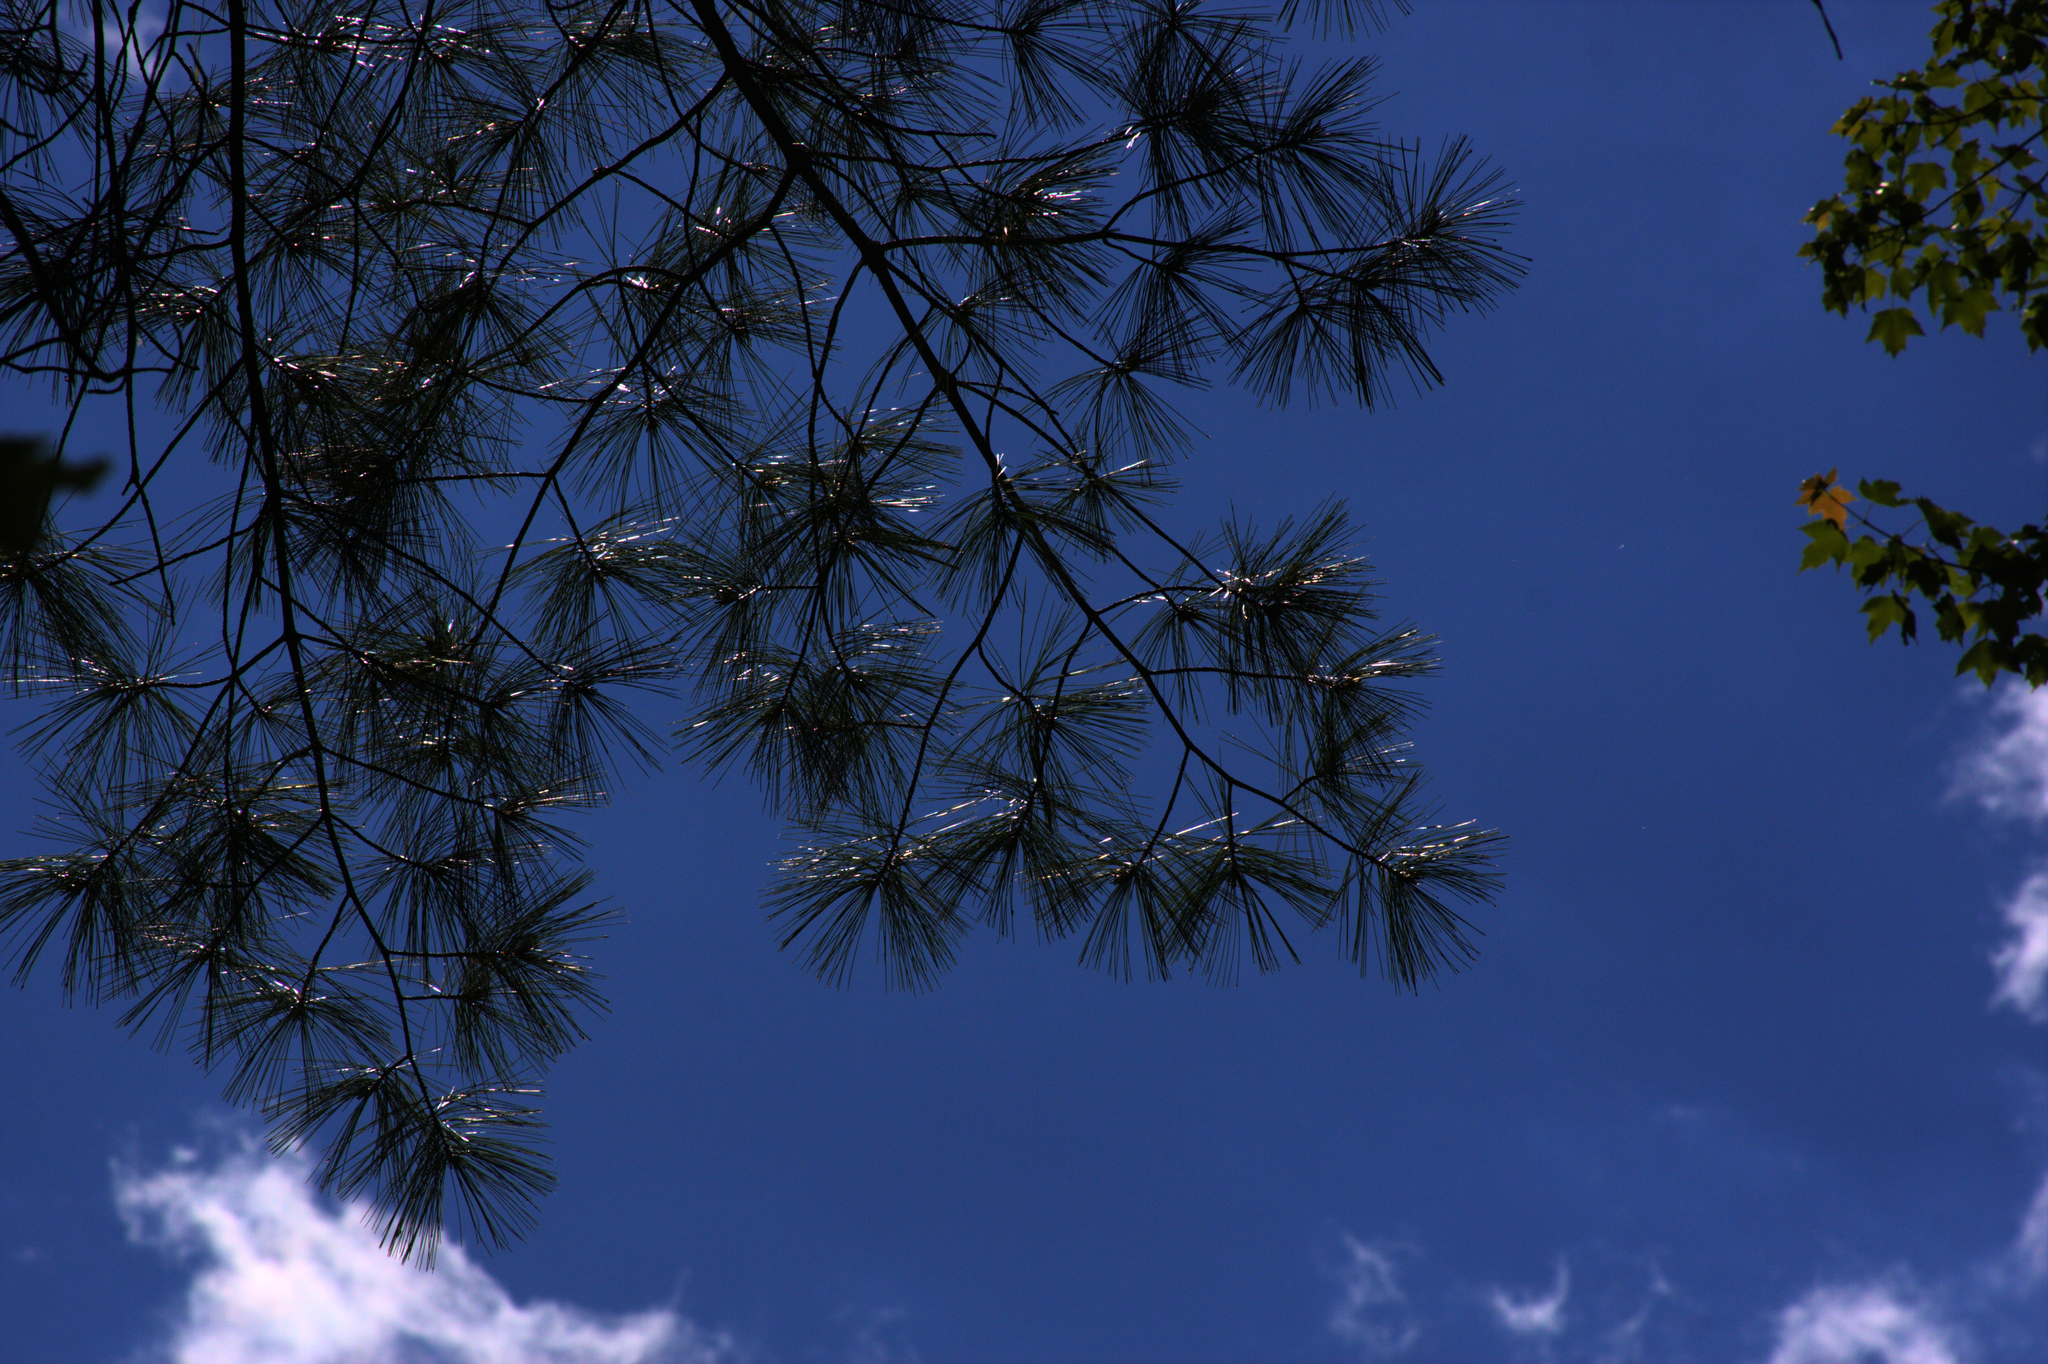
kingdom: Plantae
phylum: Tracheophyta
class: Pinopsida
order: Pinales
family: Pinaceae
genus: Pinus
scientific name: Pinus strobus
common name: Weymouth pine
